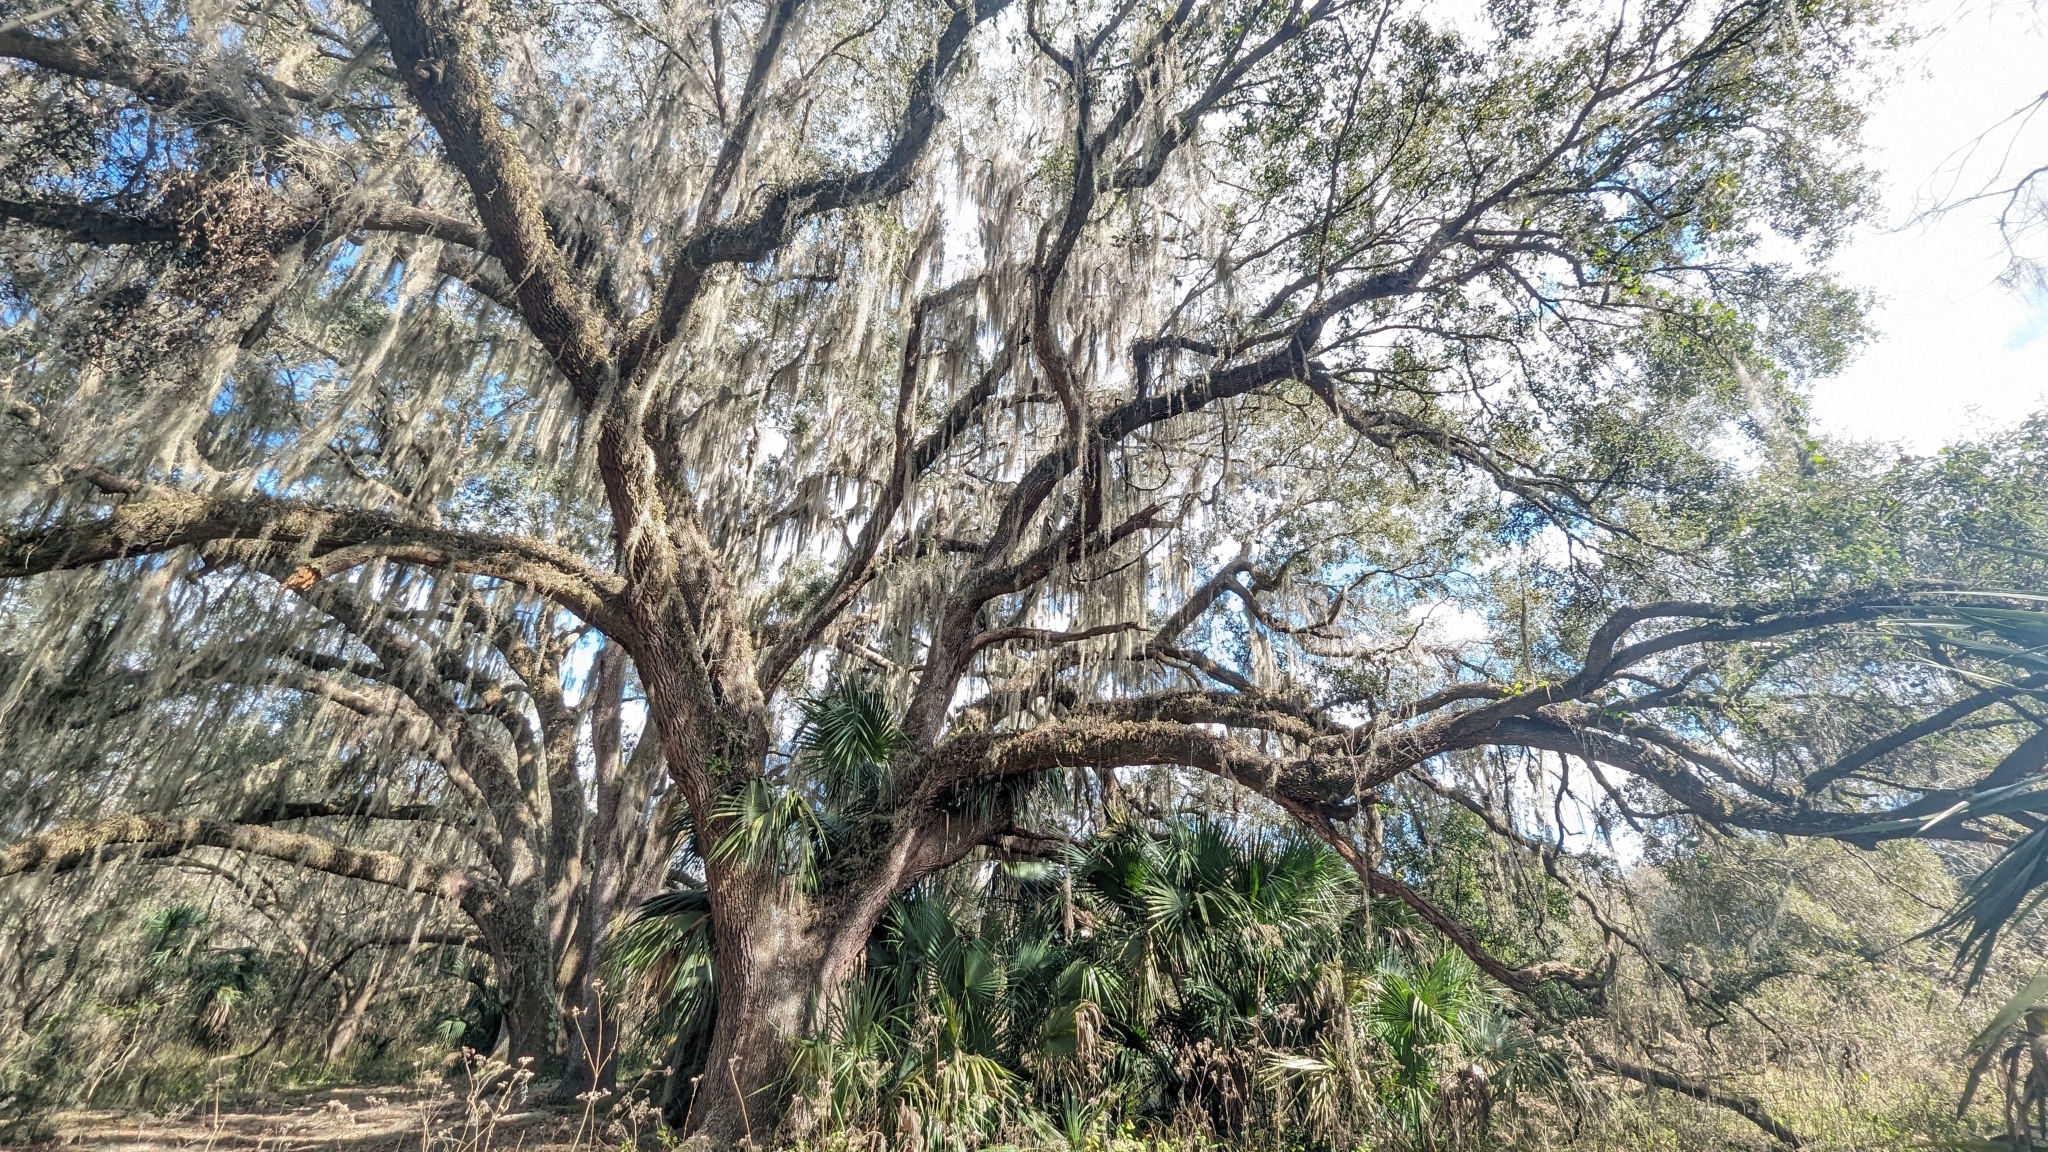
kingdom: Plantae
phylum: Tracheophyta
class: Liliopsida
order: Poales
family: Bromeliaceae
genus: Tillandsia
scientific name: Tillandsia usneoides
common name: Spanish moss
